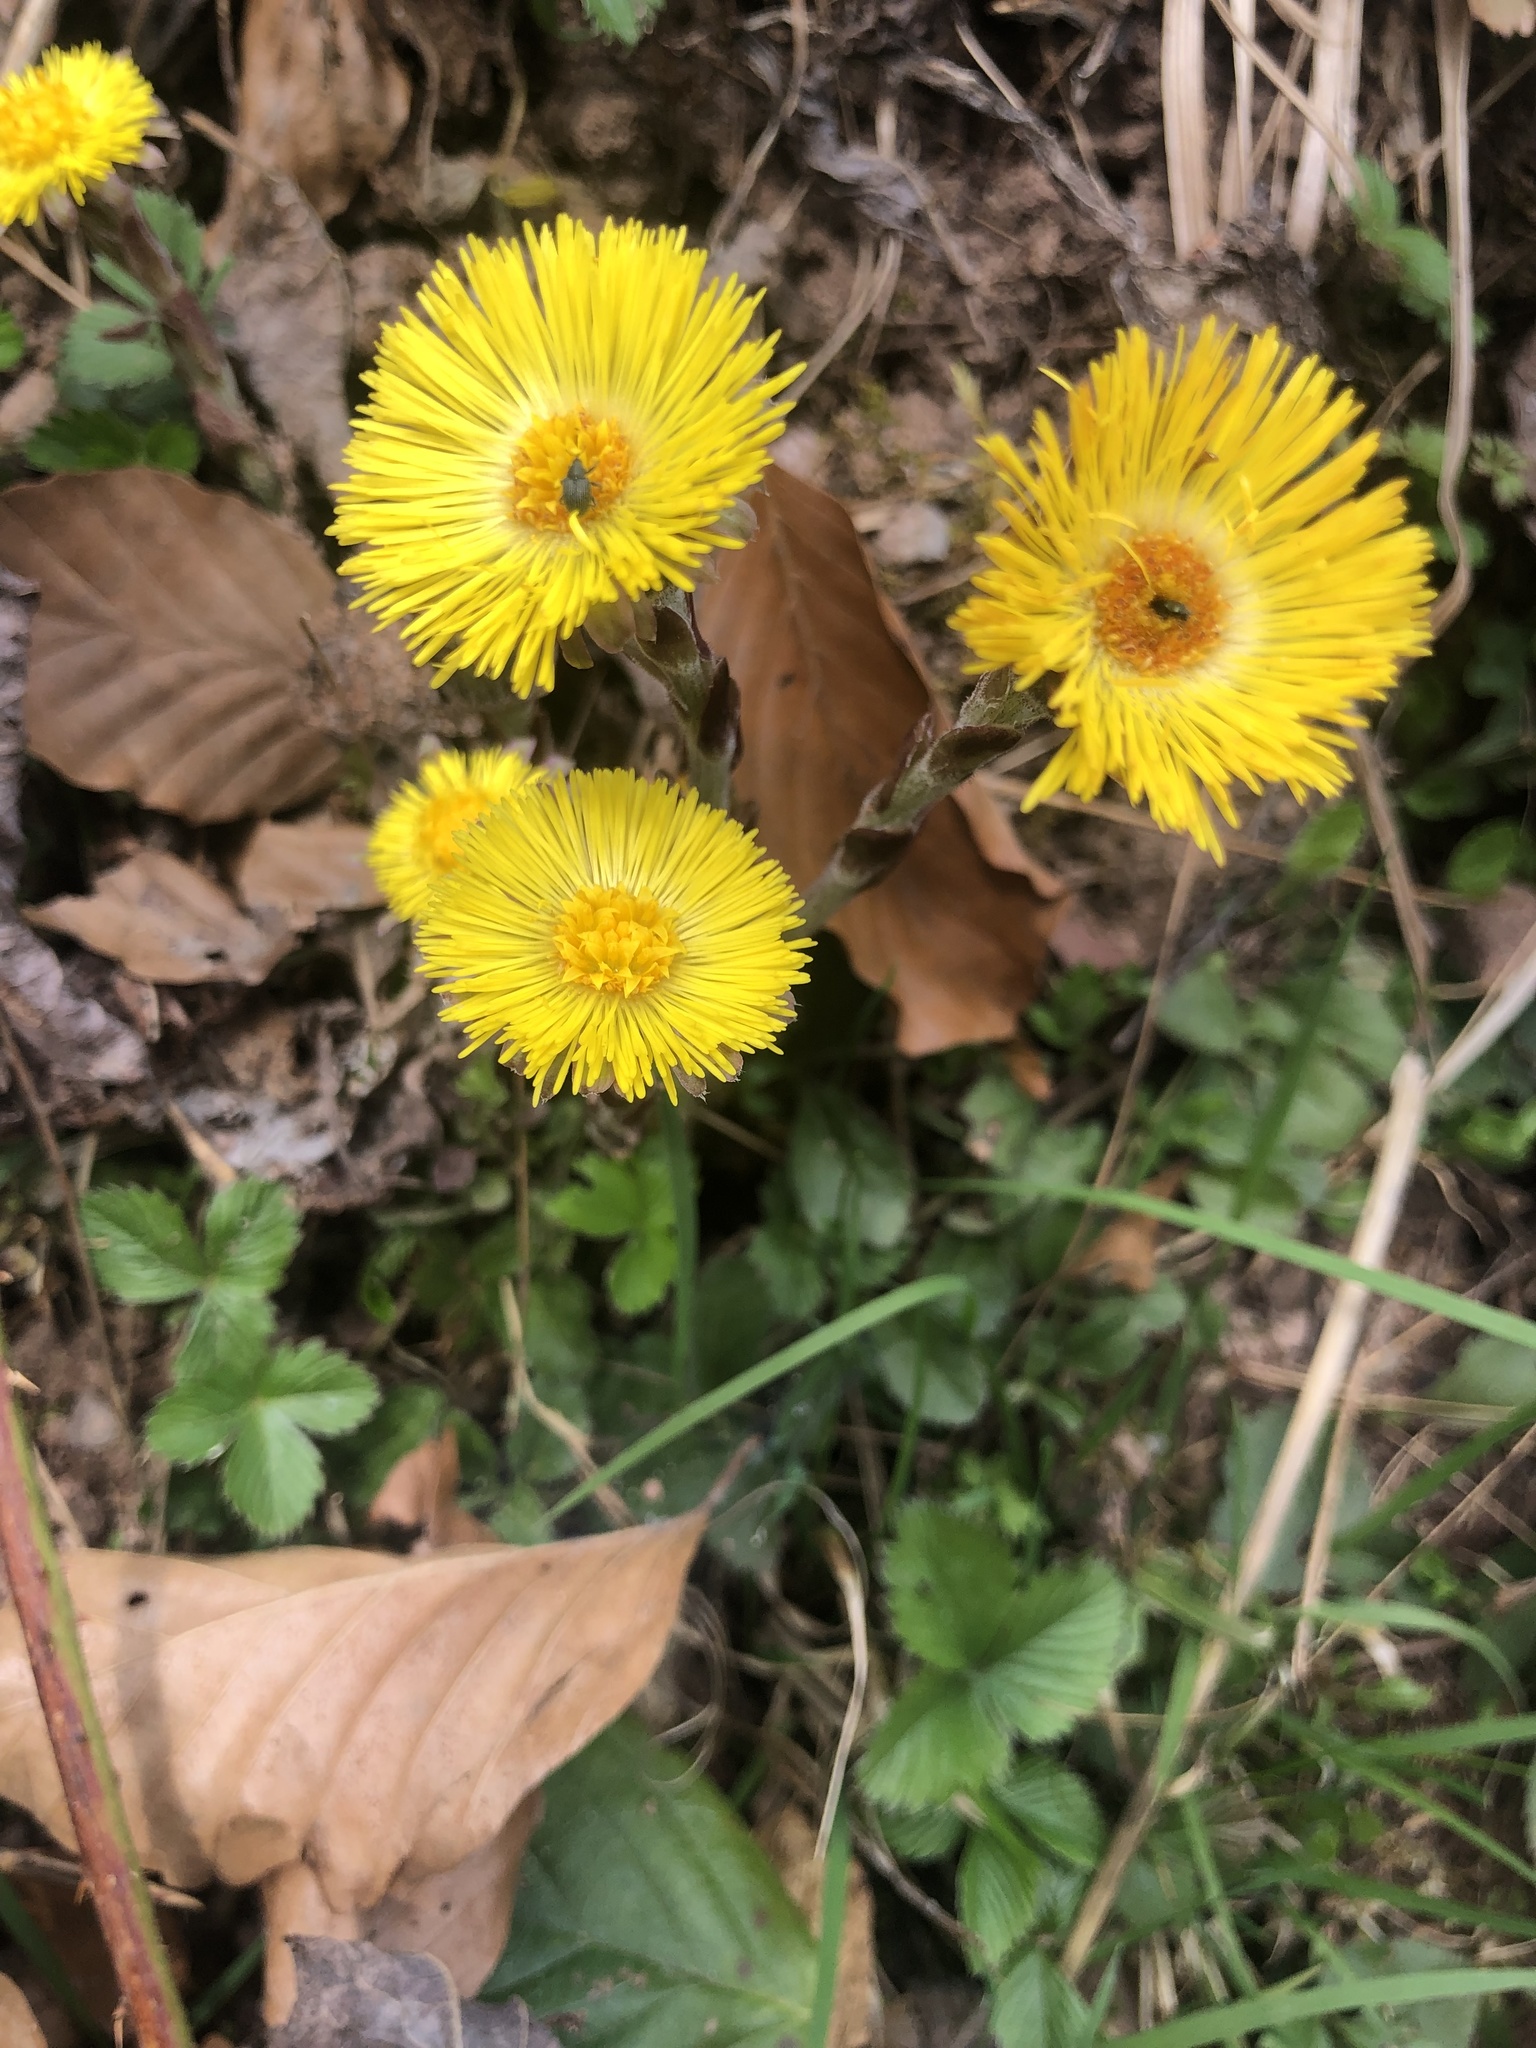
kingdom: Plantae
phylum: Tracheophyta
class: Magnoliopsida
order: Asterales
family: Asteraceae
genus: Tussilago
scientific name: Tussilago farfara
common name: Coltsfoot
